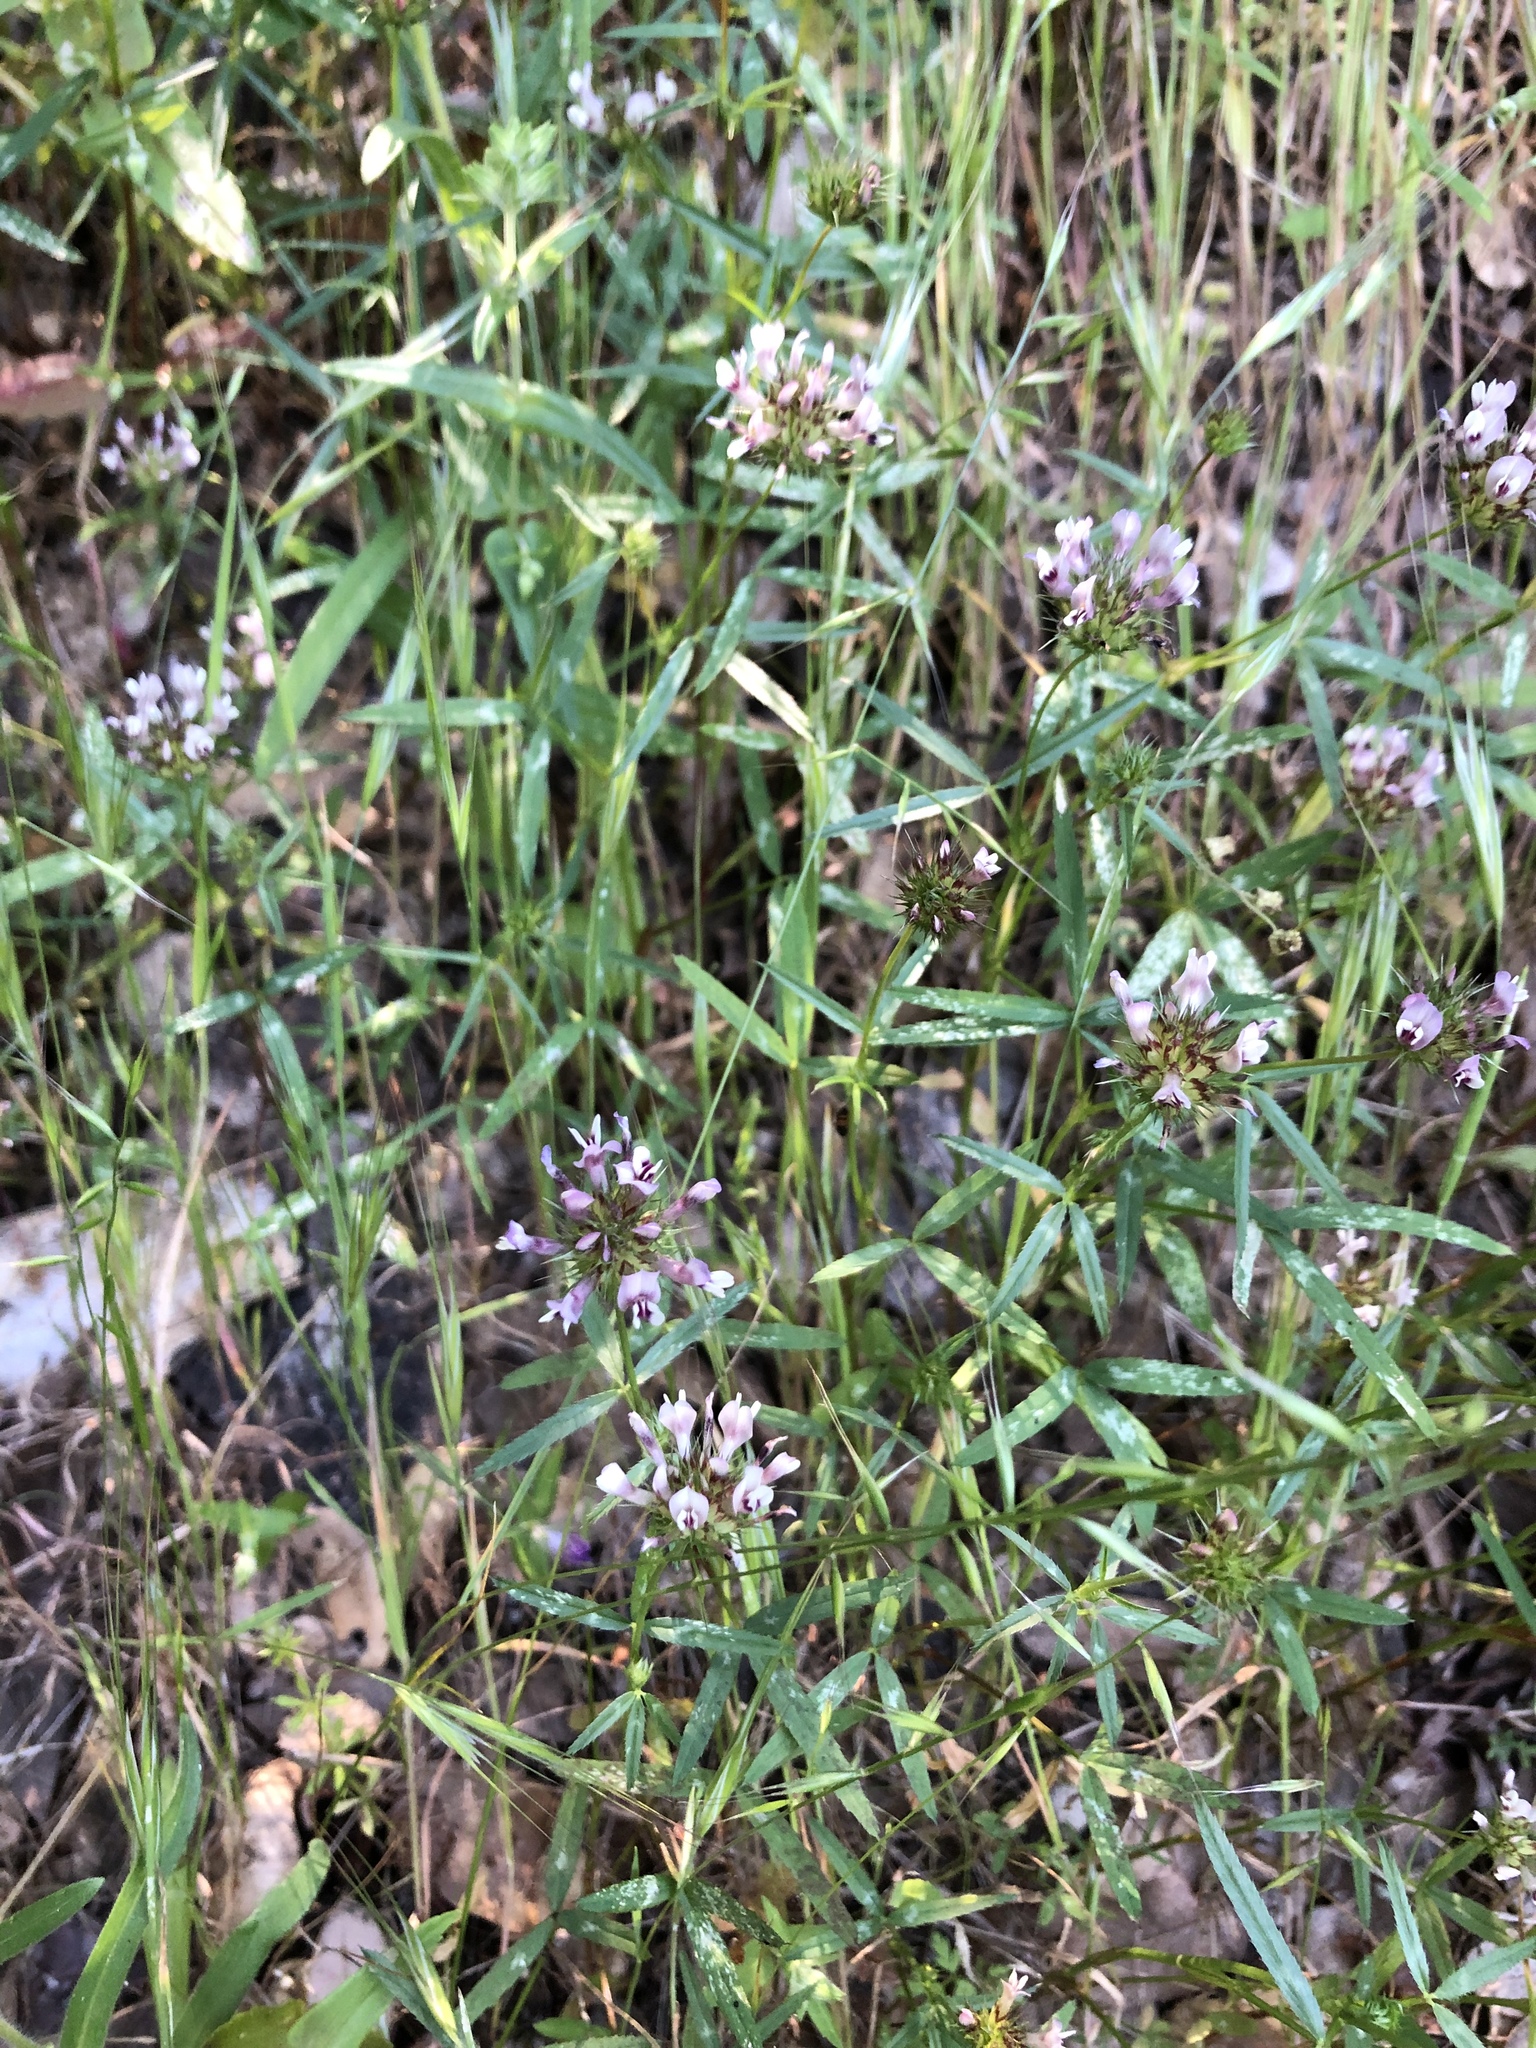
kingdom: Plantae
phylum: Tracheophyta
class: Magnoliopsida
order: Fabales
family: Fabaceae
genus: Trifolium
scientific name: Trifolium willdenovii
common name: Tomcat clover
